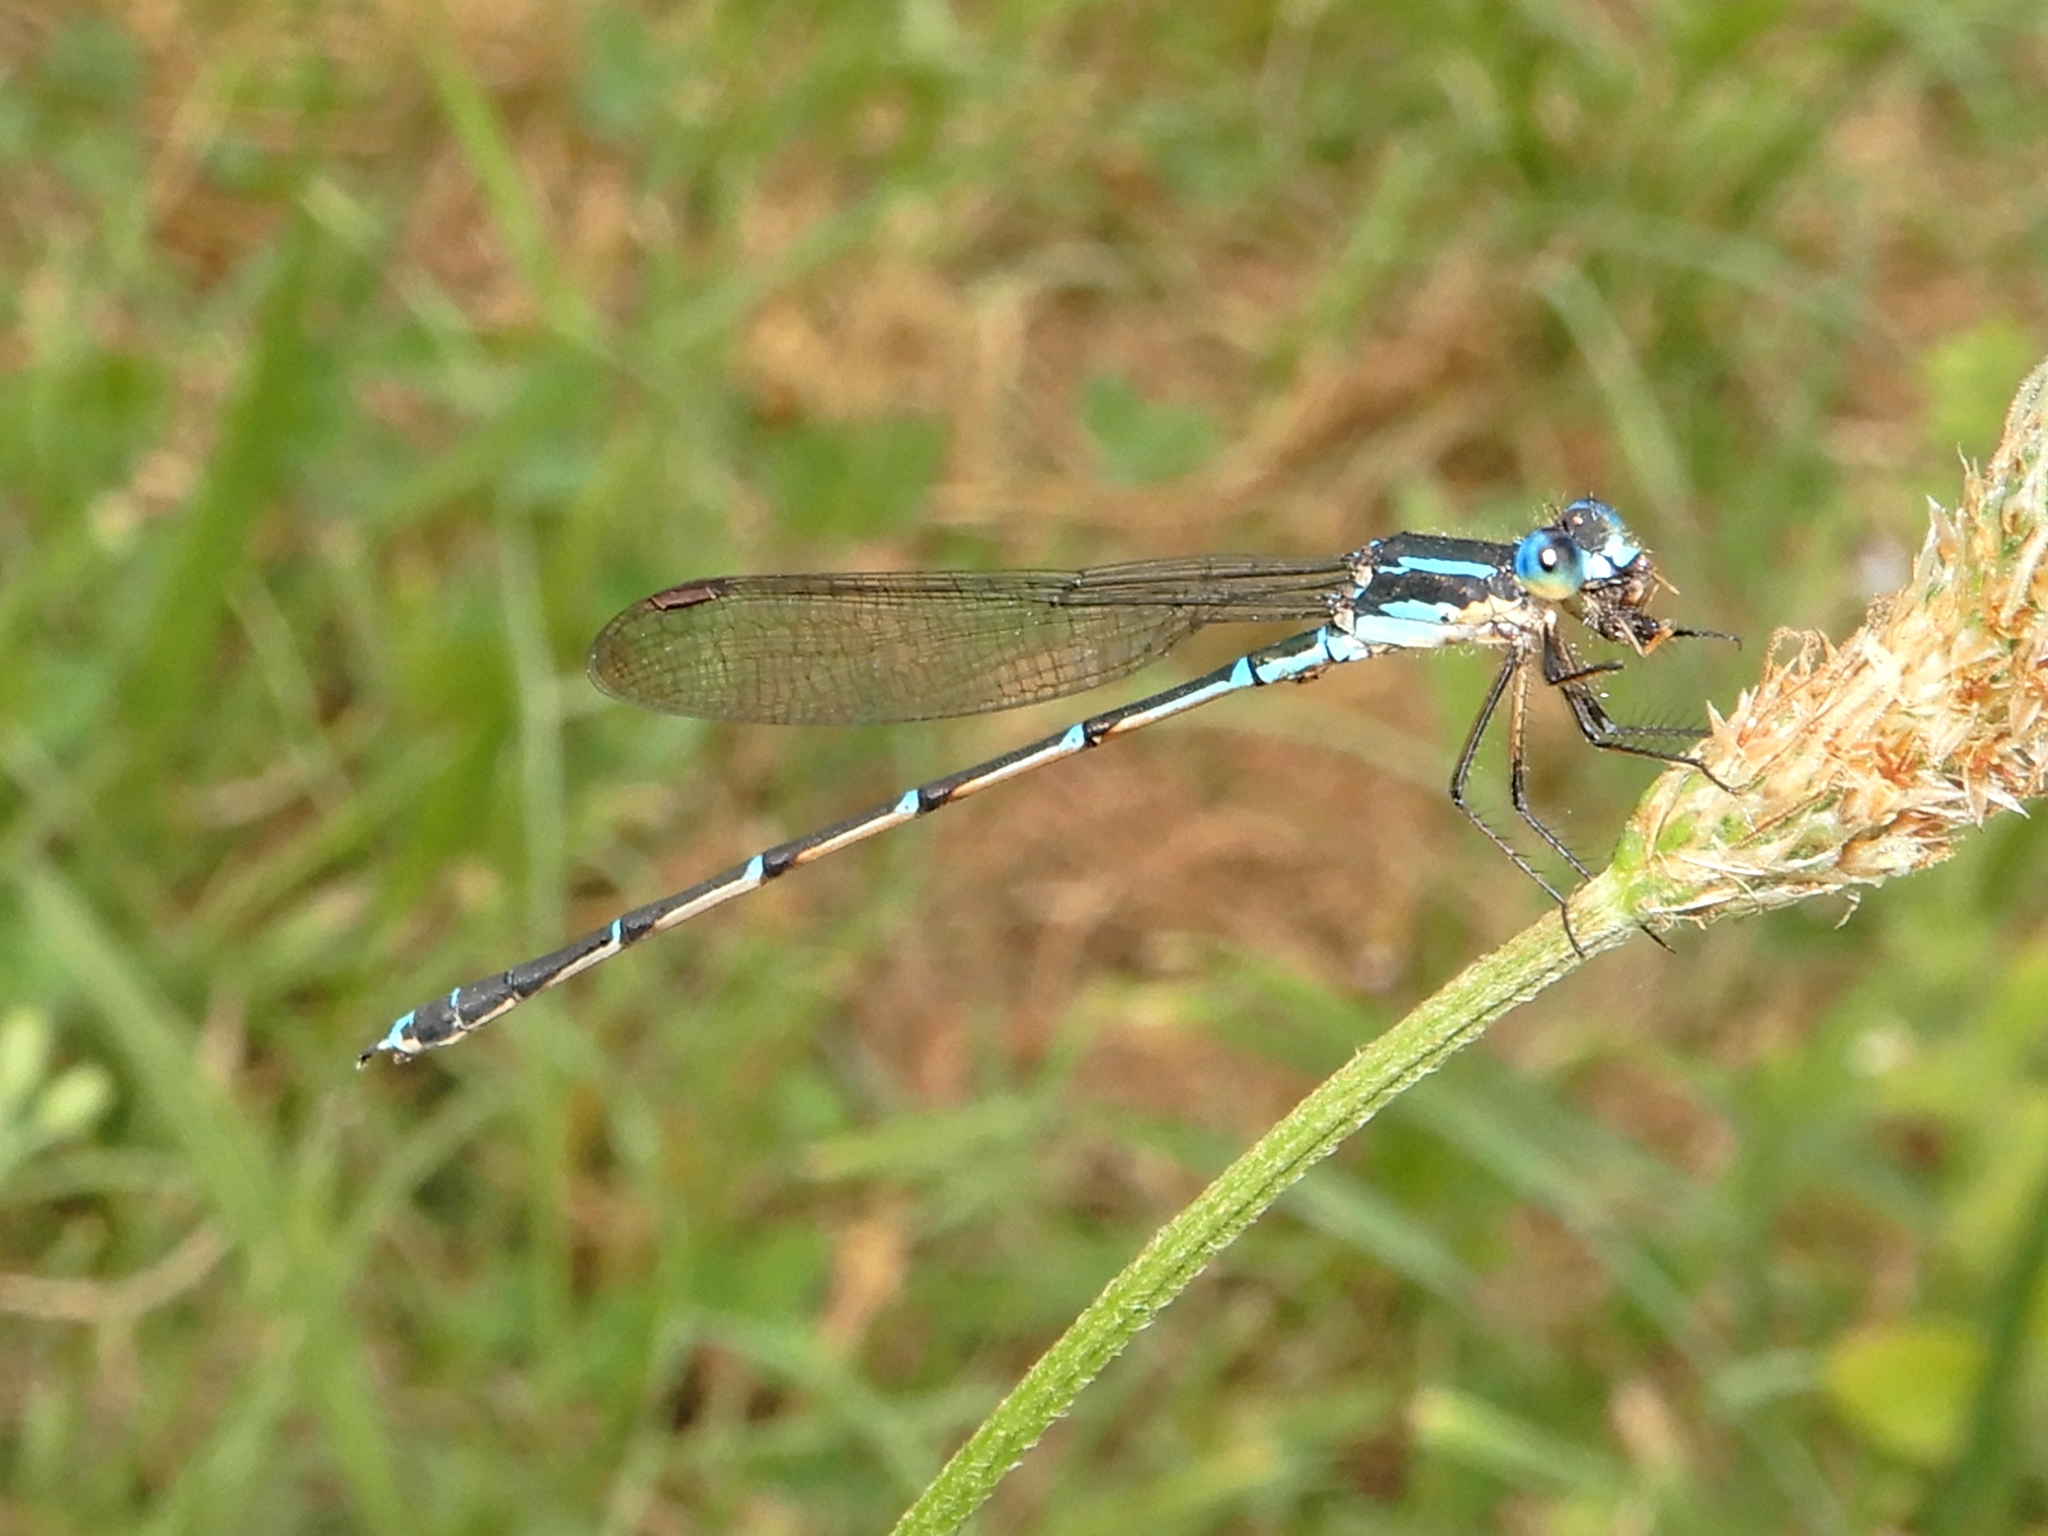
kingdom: Animalia
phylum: Arthropoda
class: Insecta
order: Odonata
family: Lestidae
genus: Austrolestes
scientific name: Austrolestes colensonis
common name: Blue damselfly
